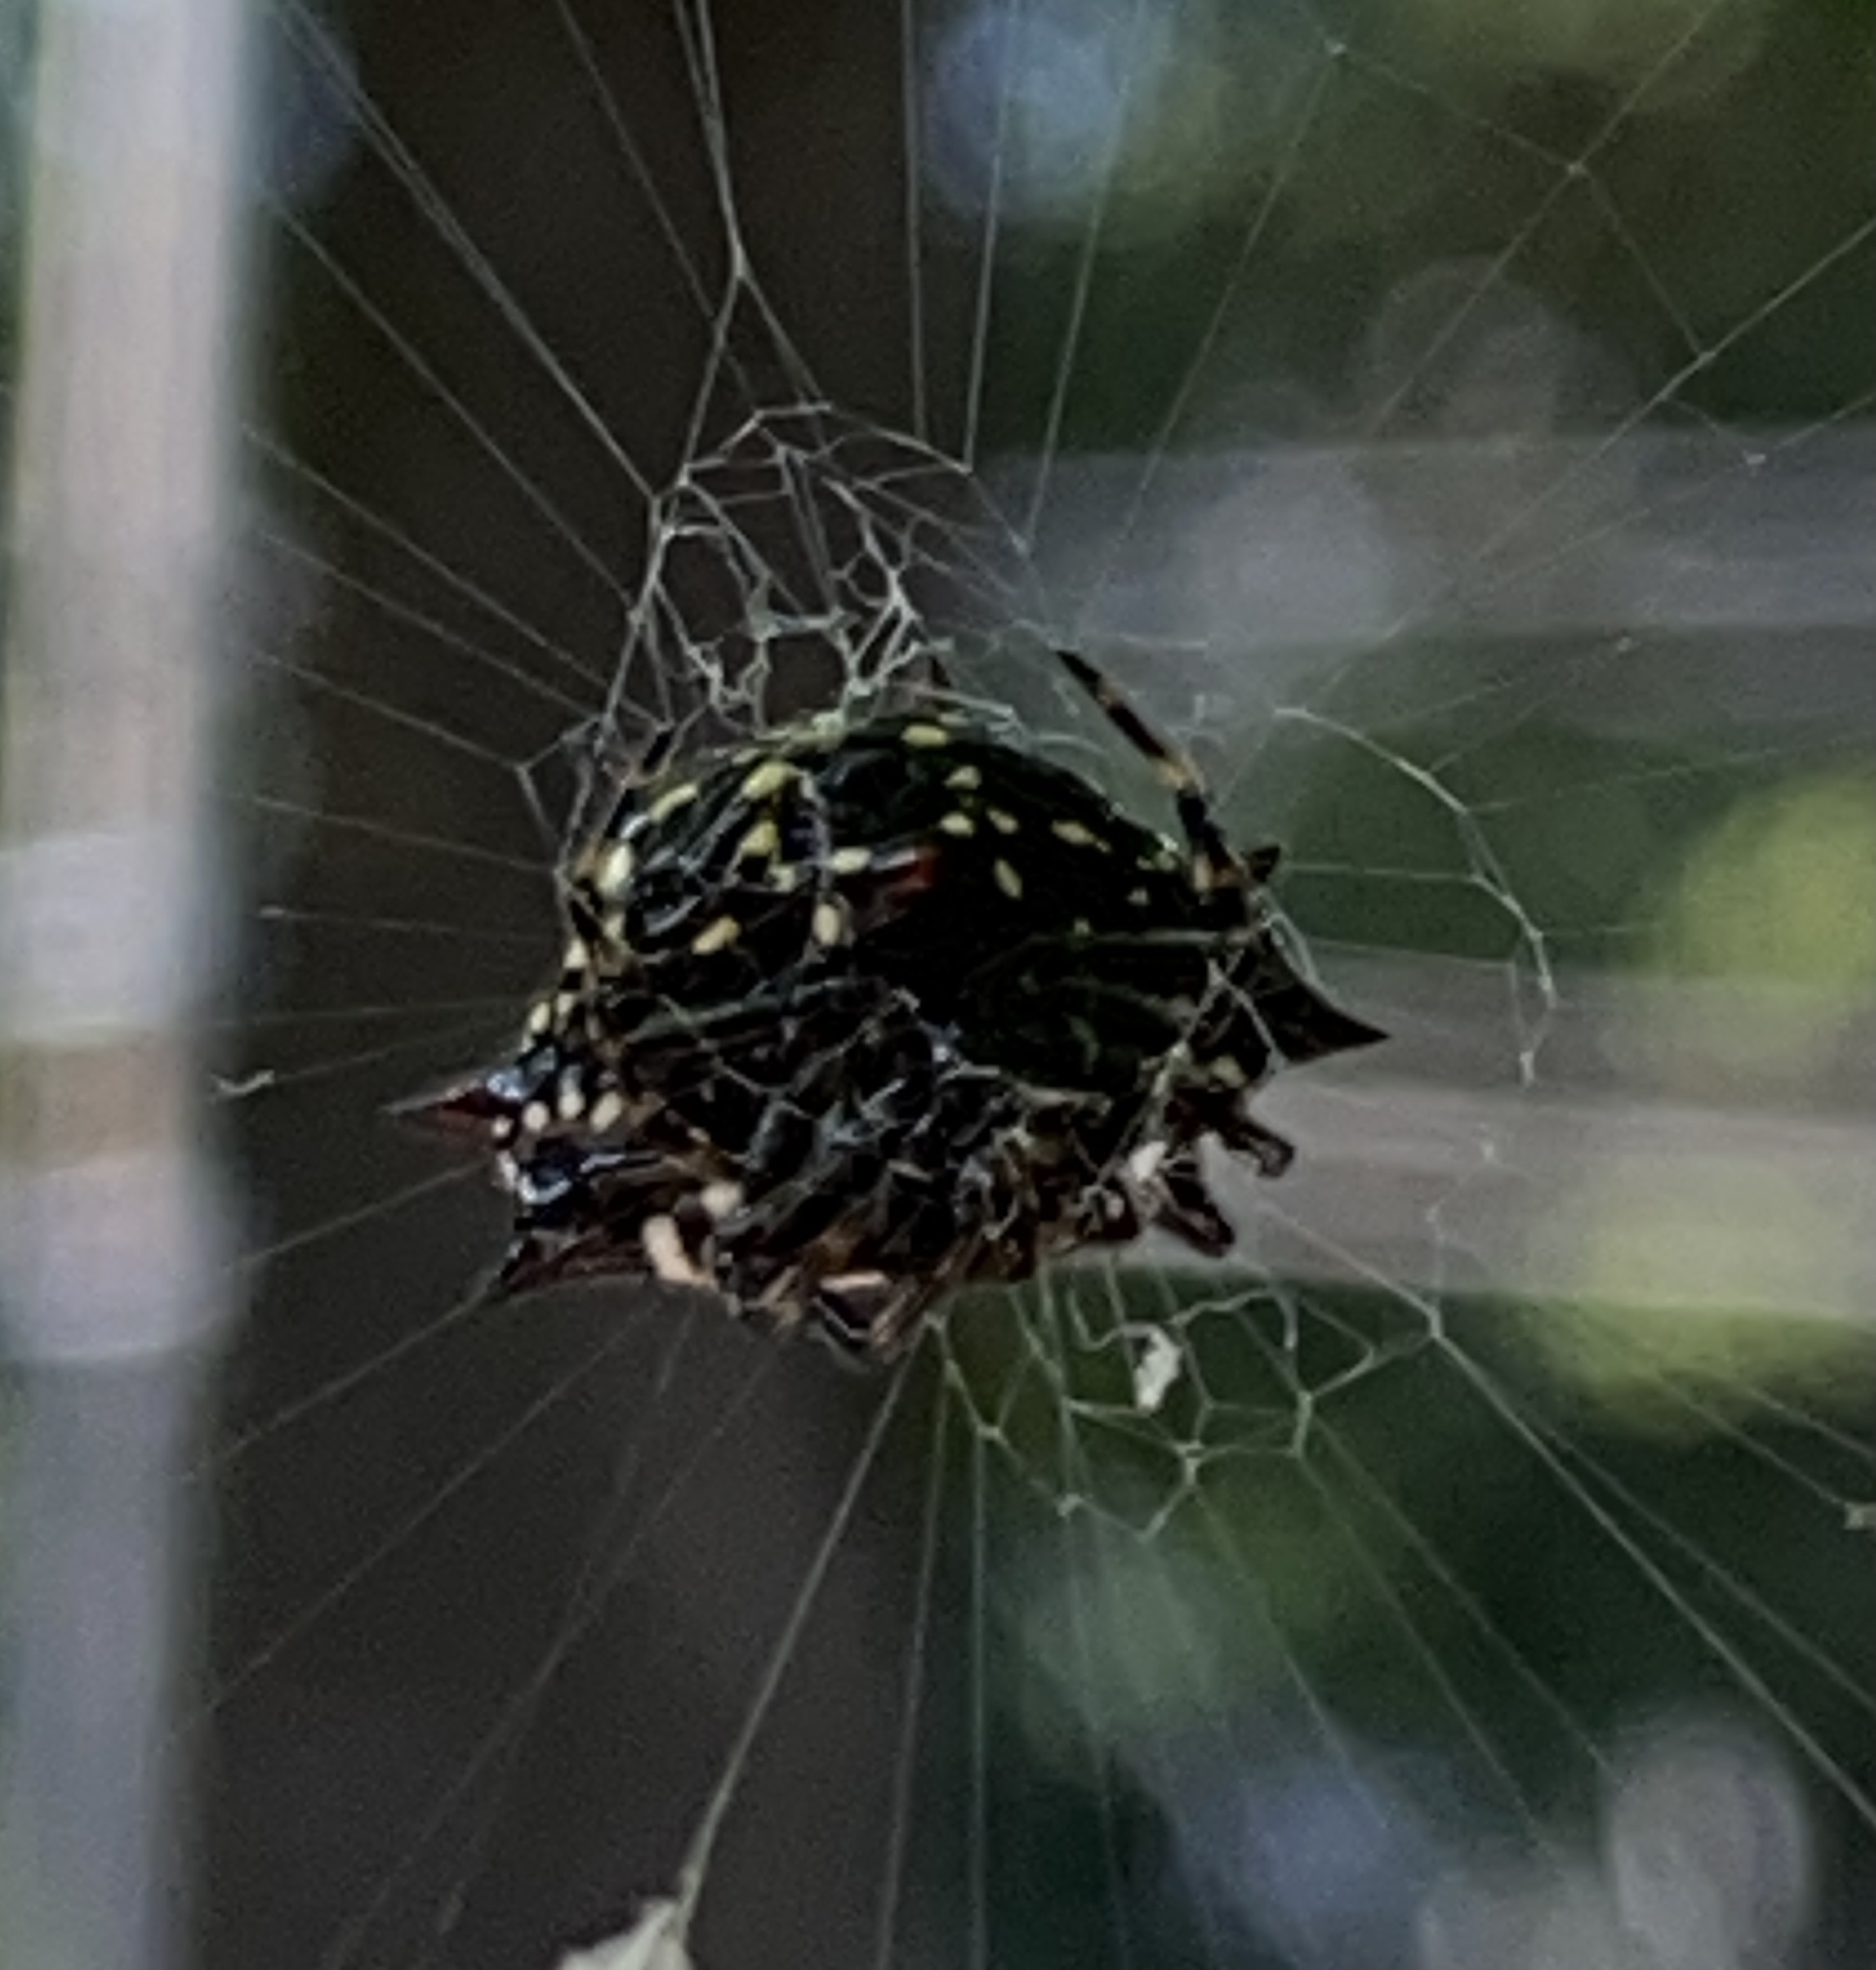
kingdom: Animalia
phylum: Arthropoda
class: Arachnida
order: Araneae
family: Araneidae
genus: Gasteracantha
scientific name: Gasteracantha cancriformis
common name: Orb weavers
